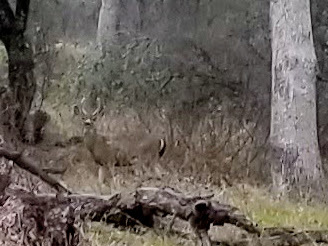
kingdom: Animalia
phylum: Chordata
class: Mammalia
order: Artiodactyla
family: Cervidae
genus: Odocoileus
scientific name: Odocoileus hemionus
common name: Mule deer
